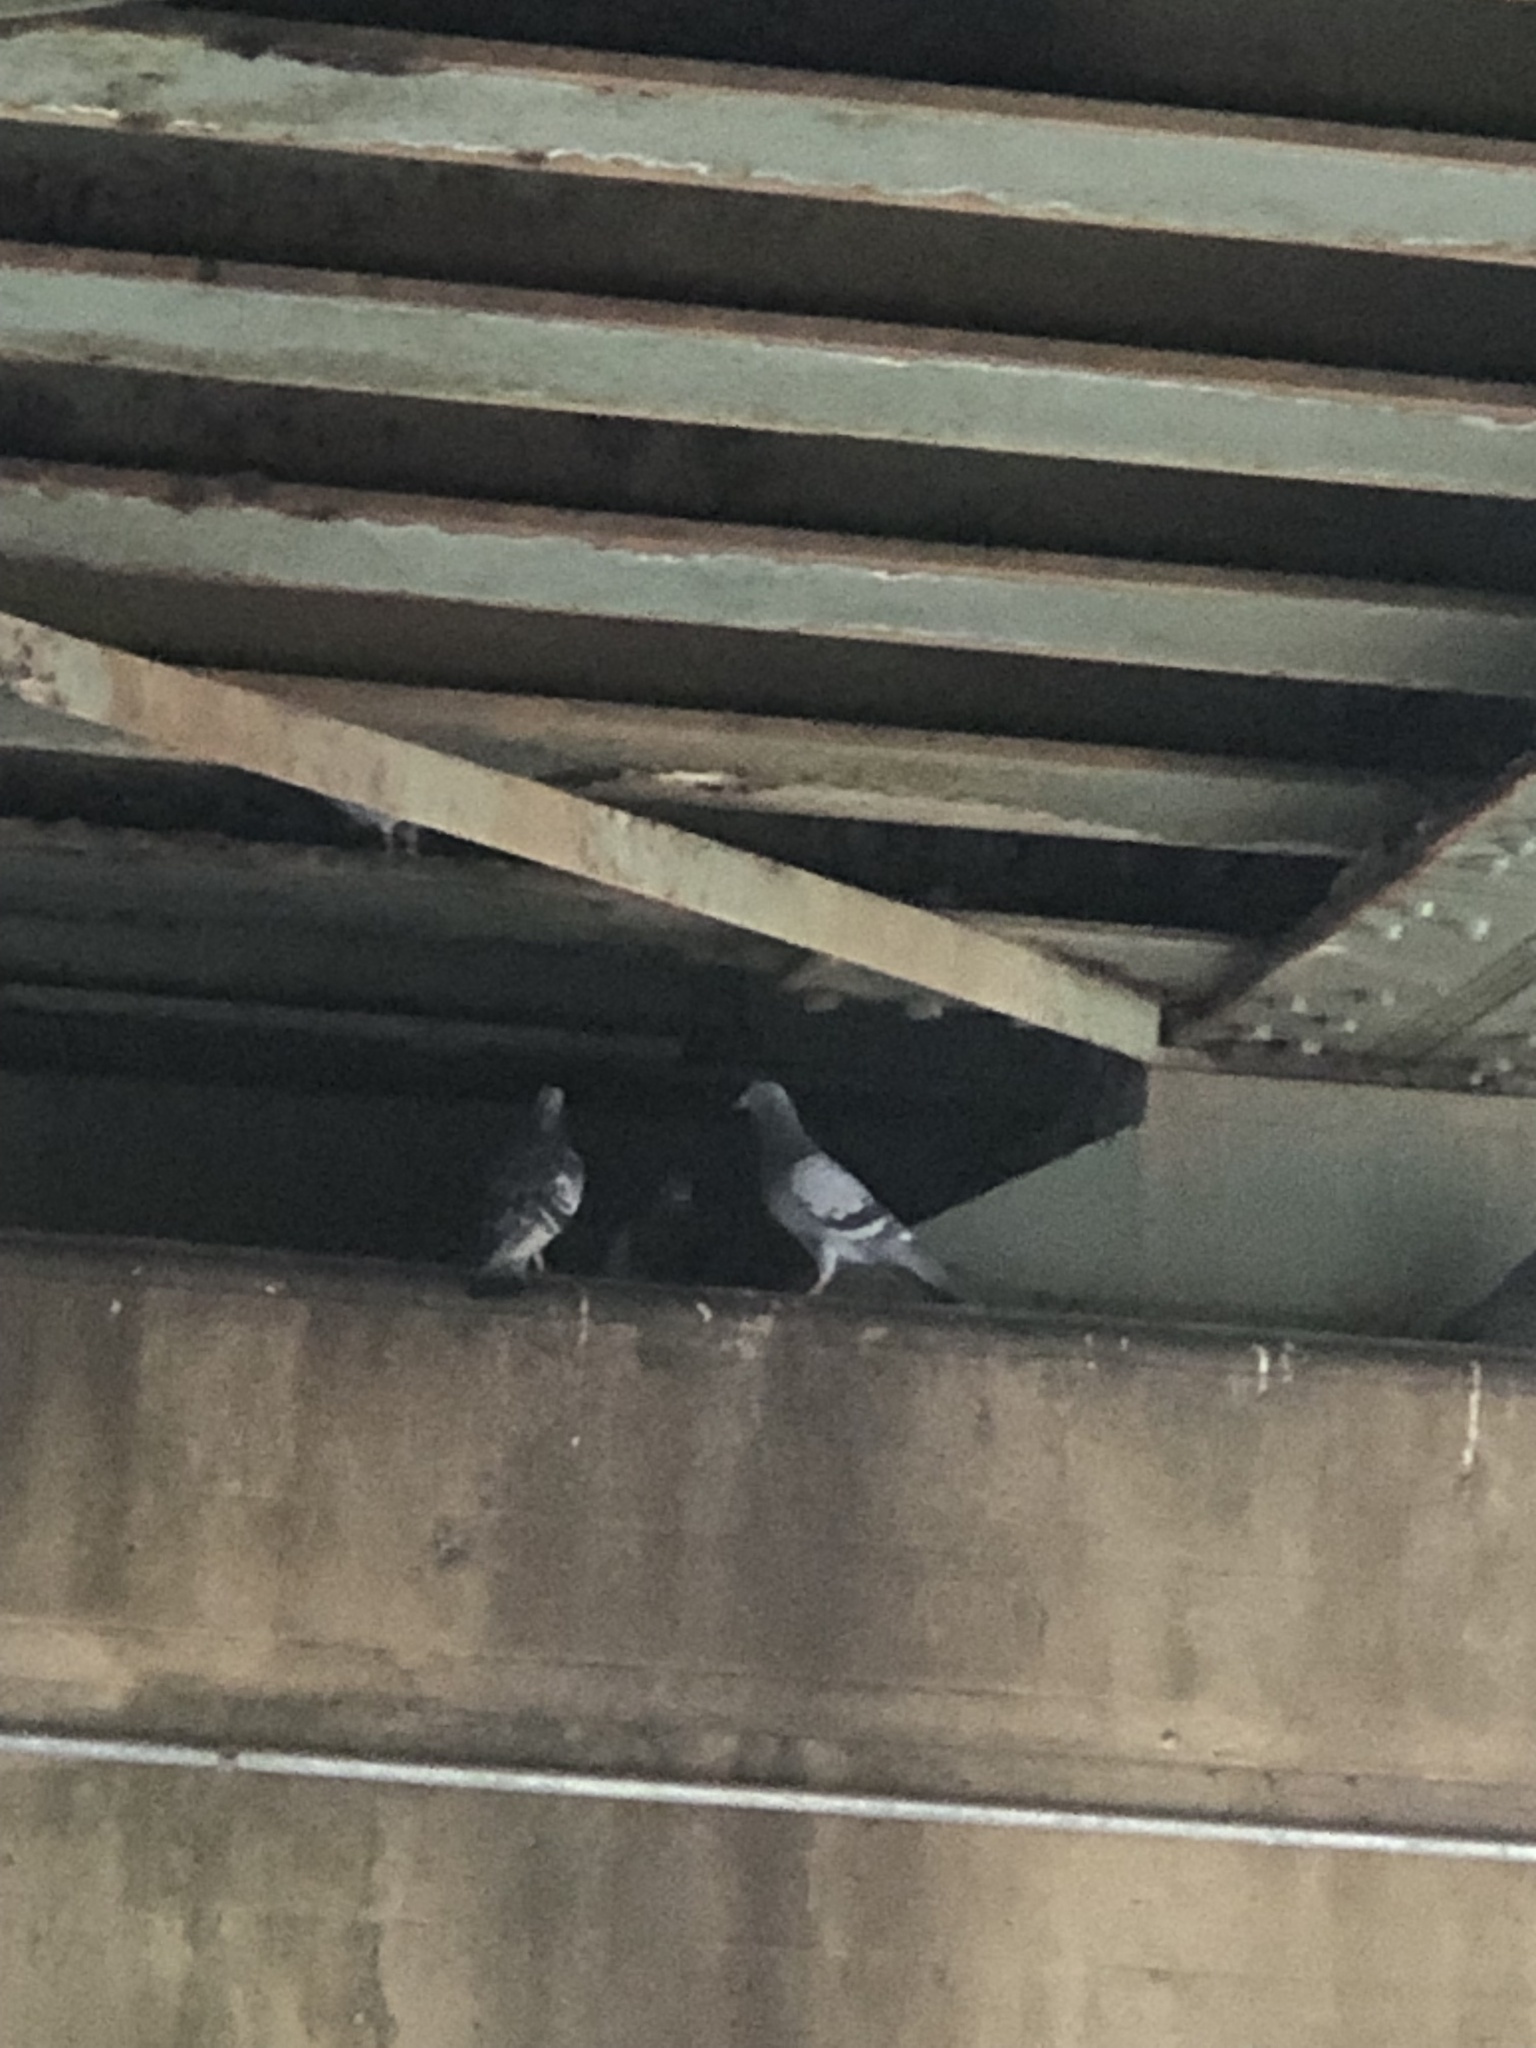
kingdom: Animalia
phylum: Chordata
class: Aves
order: Columbiformes
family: Columbidae
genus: Columba
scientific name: Columba livia
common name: Rock pigeon
